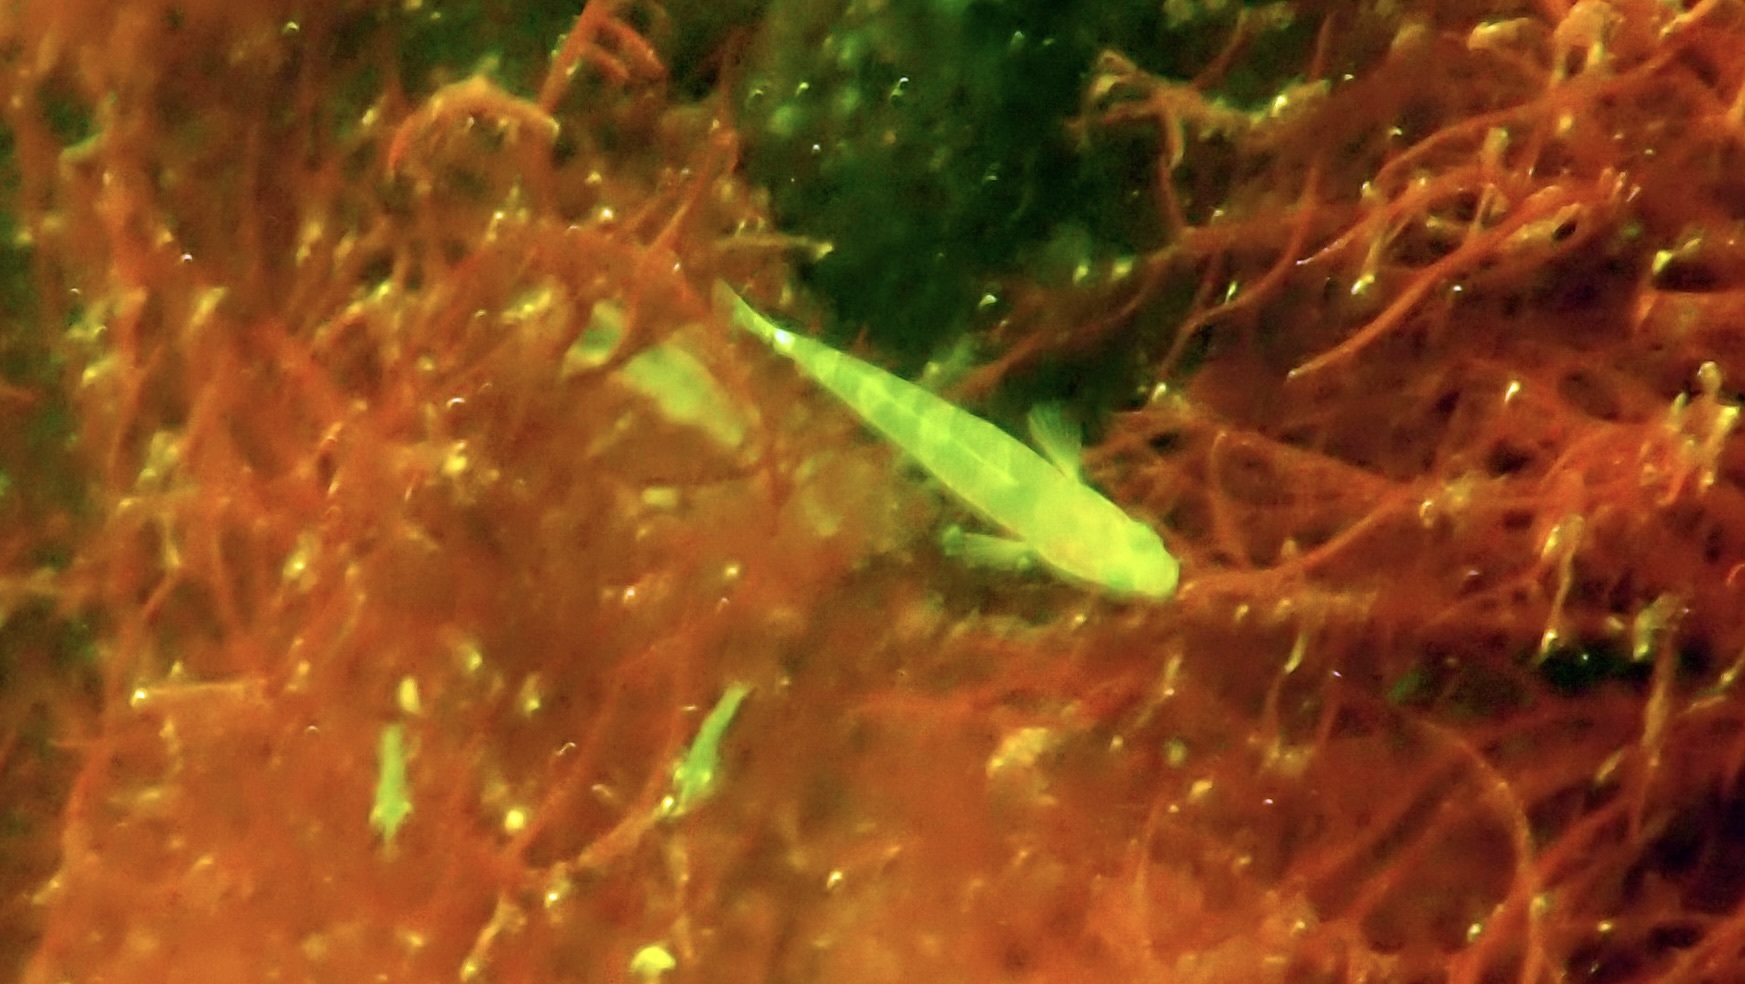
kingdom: Animalia
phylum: Chordata
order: Perciformes
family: Gobiidae
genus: Gobiusculus
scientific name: Gobiusculus flavescens
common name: Two-spotted goby
